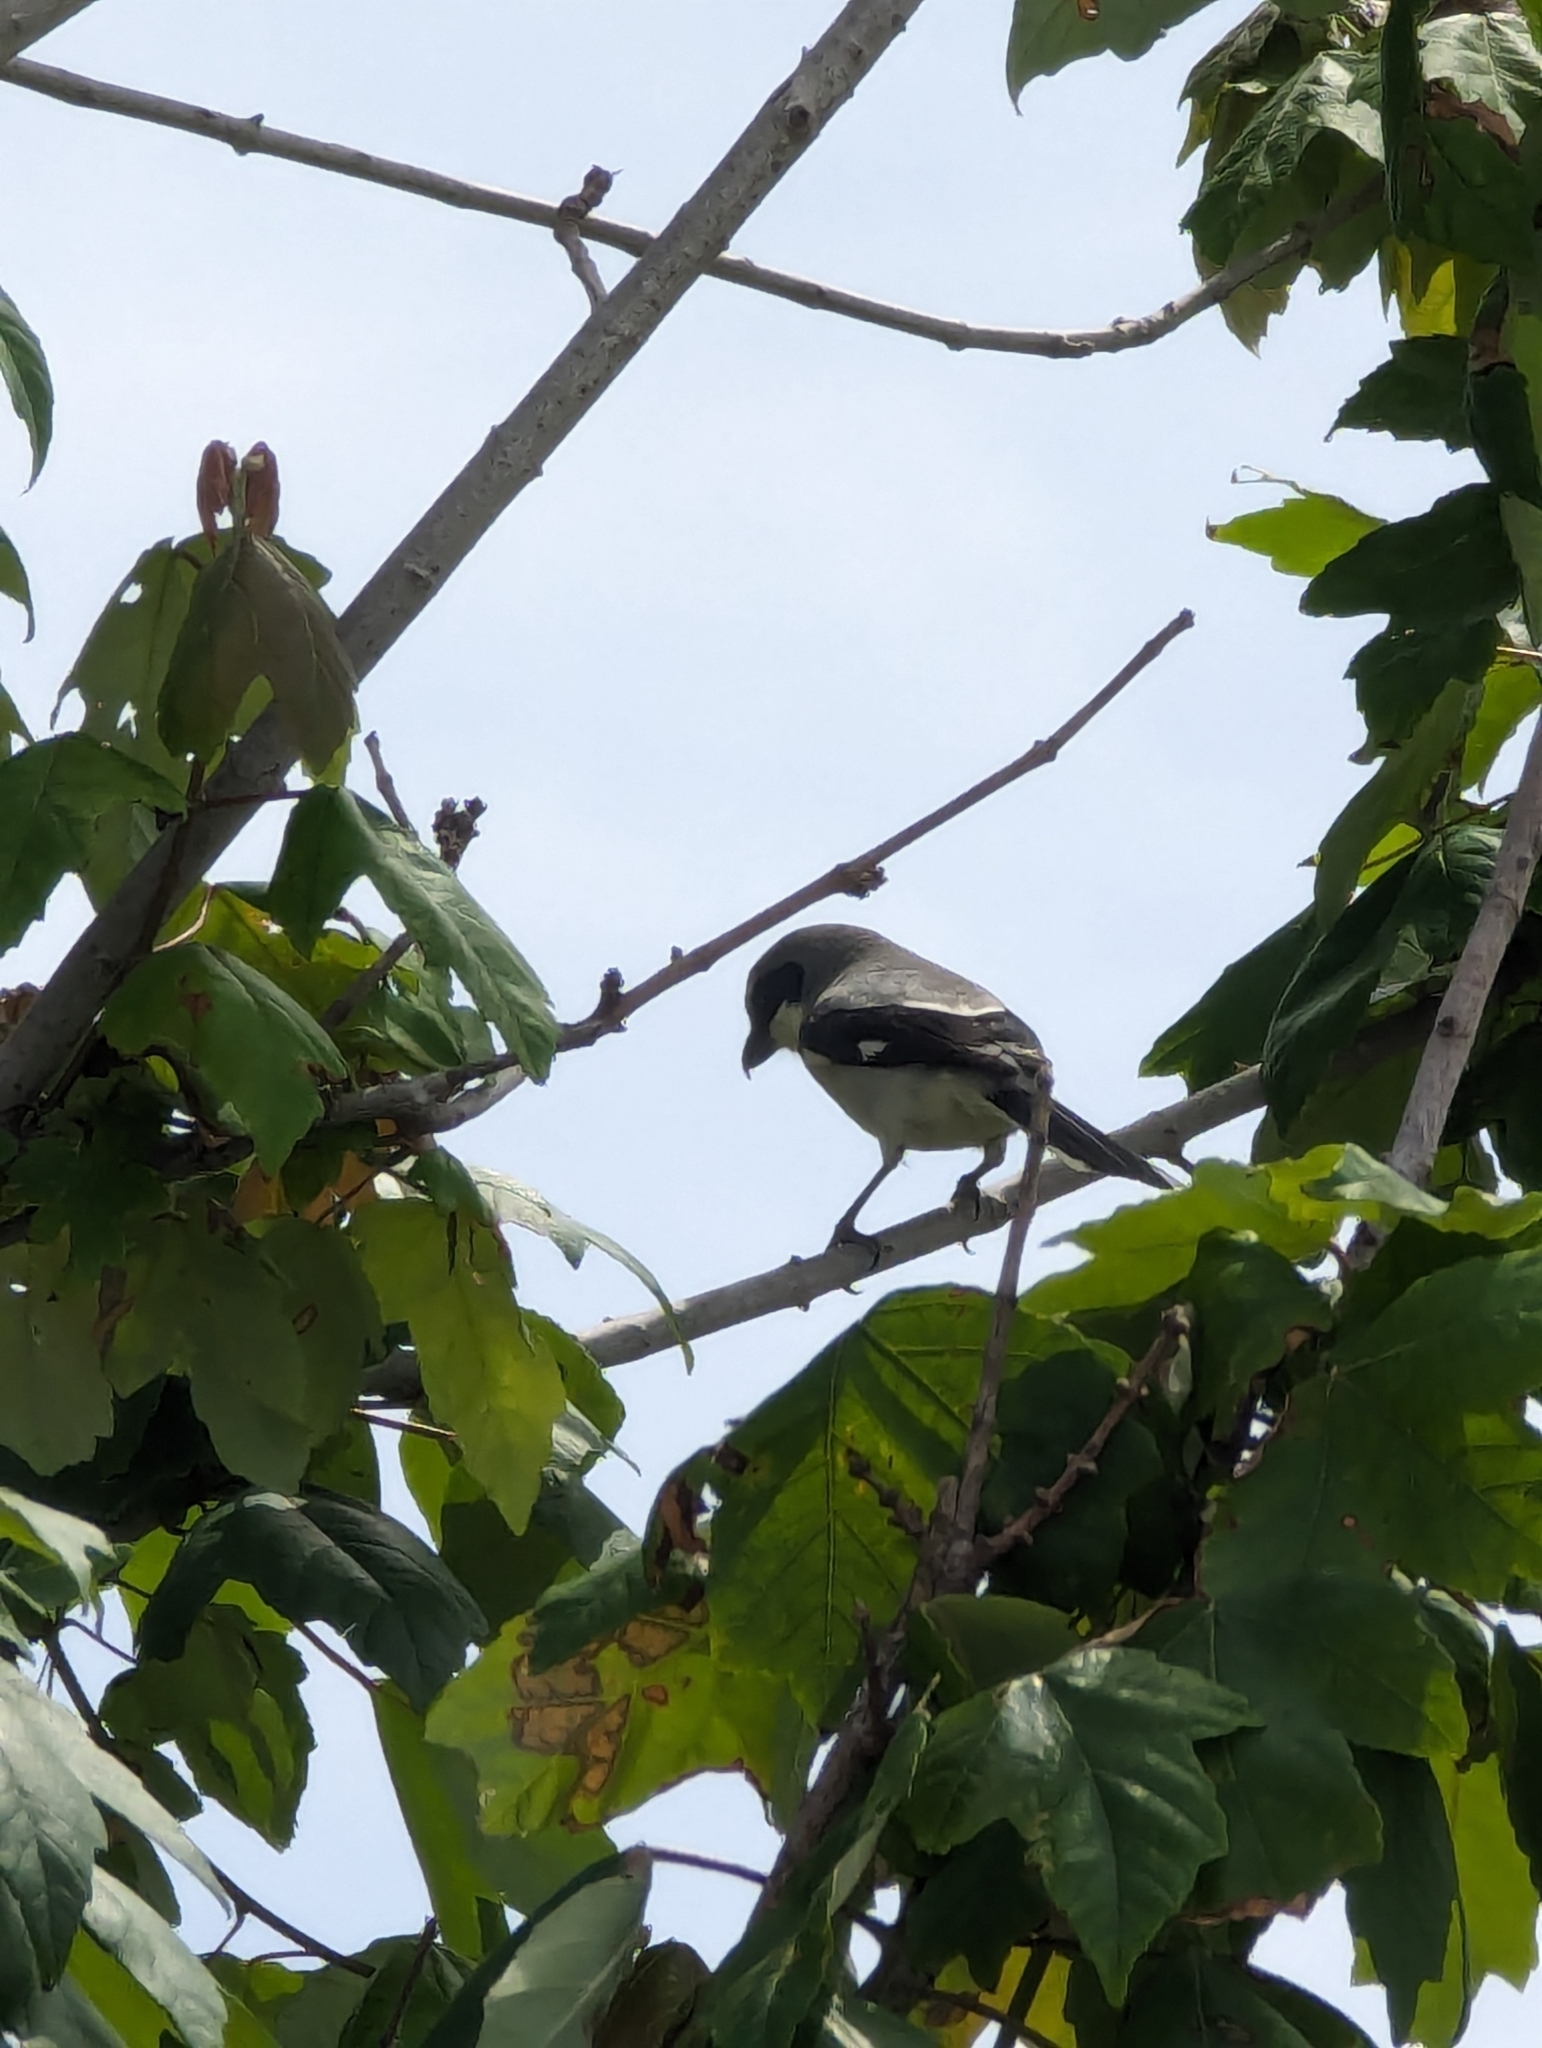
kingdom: Animalia
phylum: Chordata
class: Aves
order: Passeriformes
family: Laniidae
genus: Lanius
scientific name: Lanius ludovicianus
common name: Loggerhead shrike
